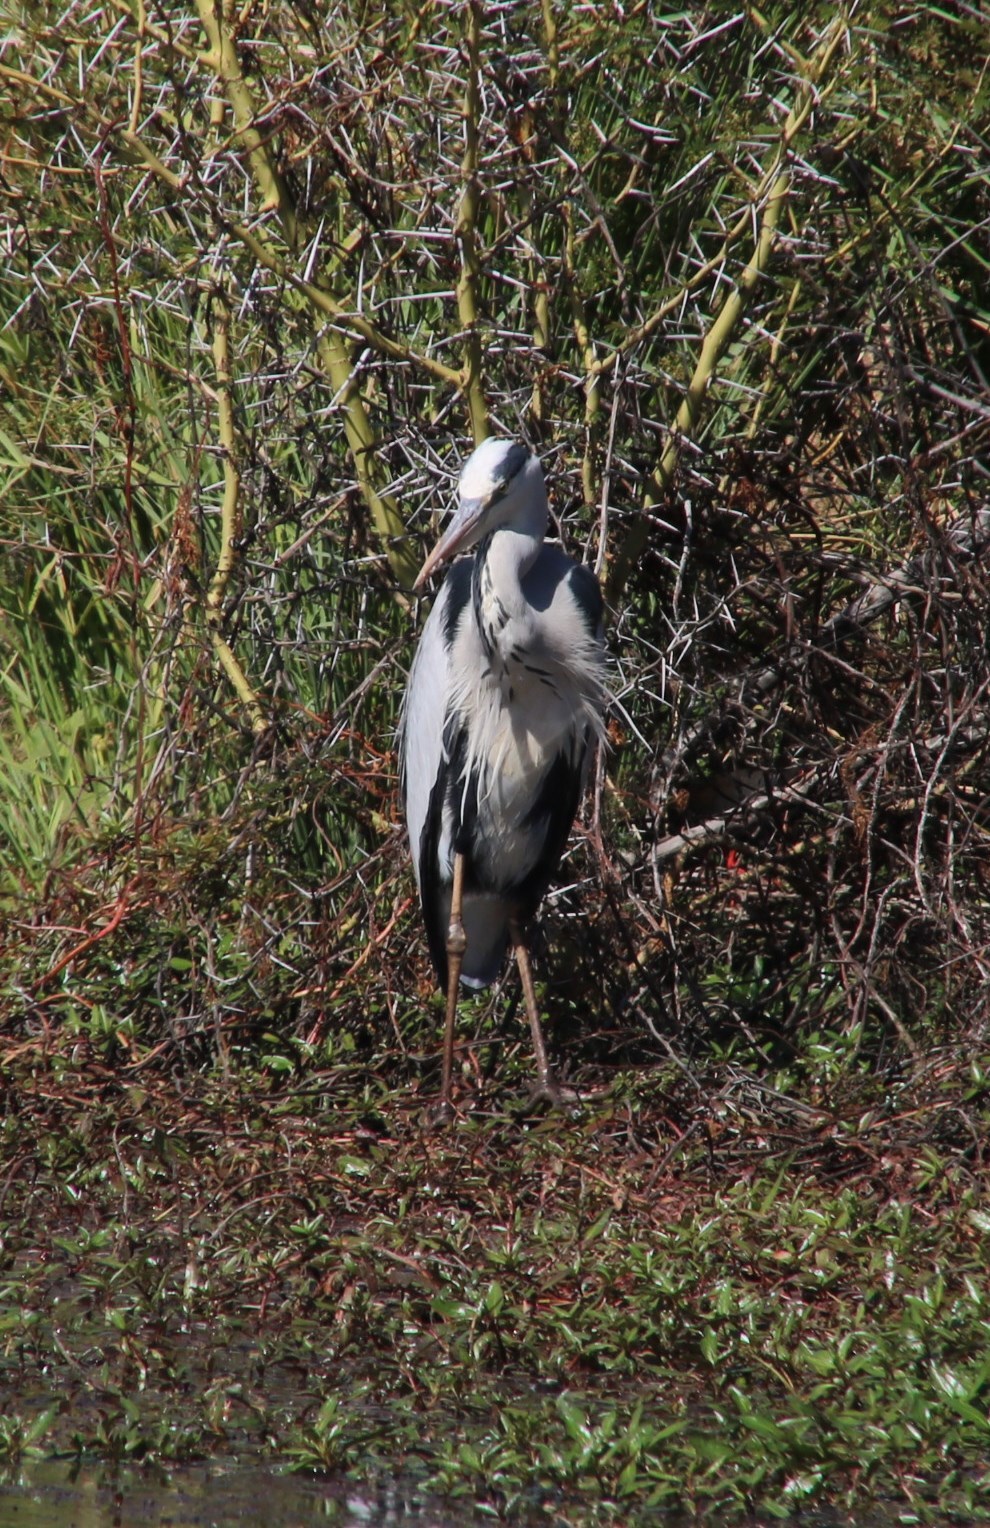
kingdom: Animalia
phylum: Chordata
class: Aves
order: Pelecaniformes
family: Ardeidae
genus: Ardea
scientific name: Ardea cinerea
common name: Grey heron
